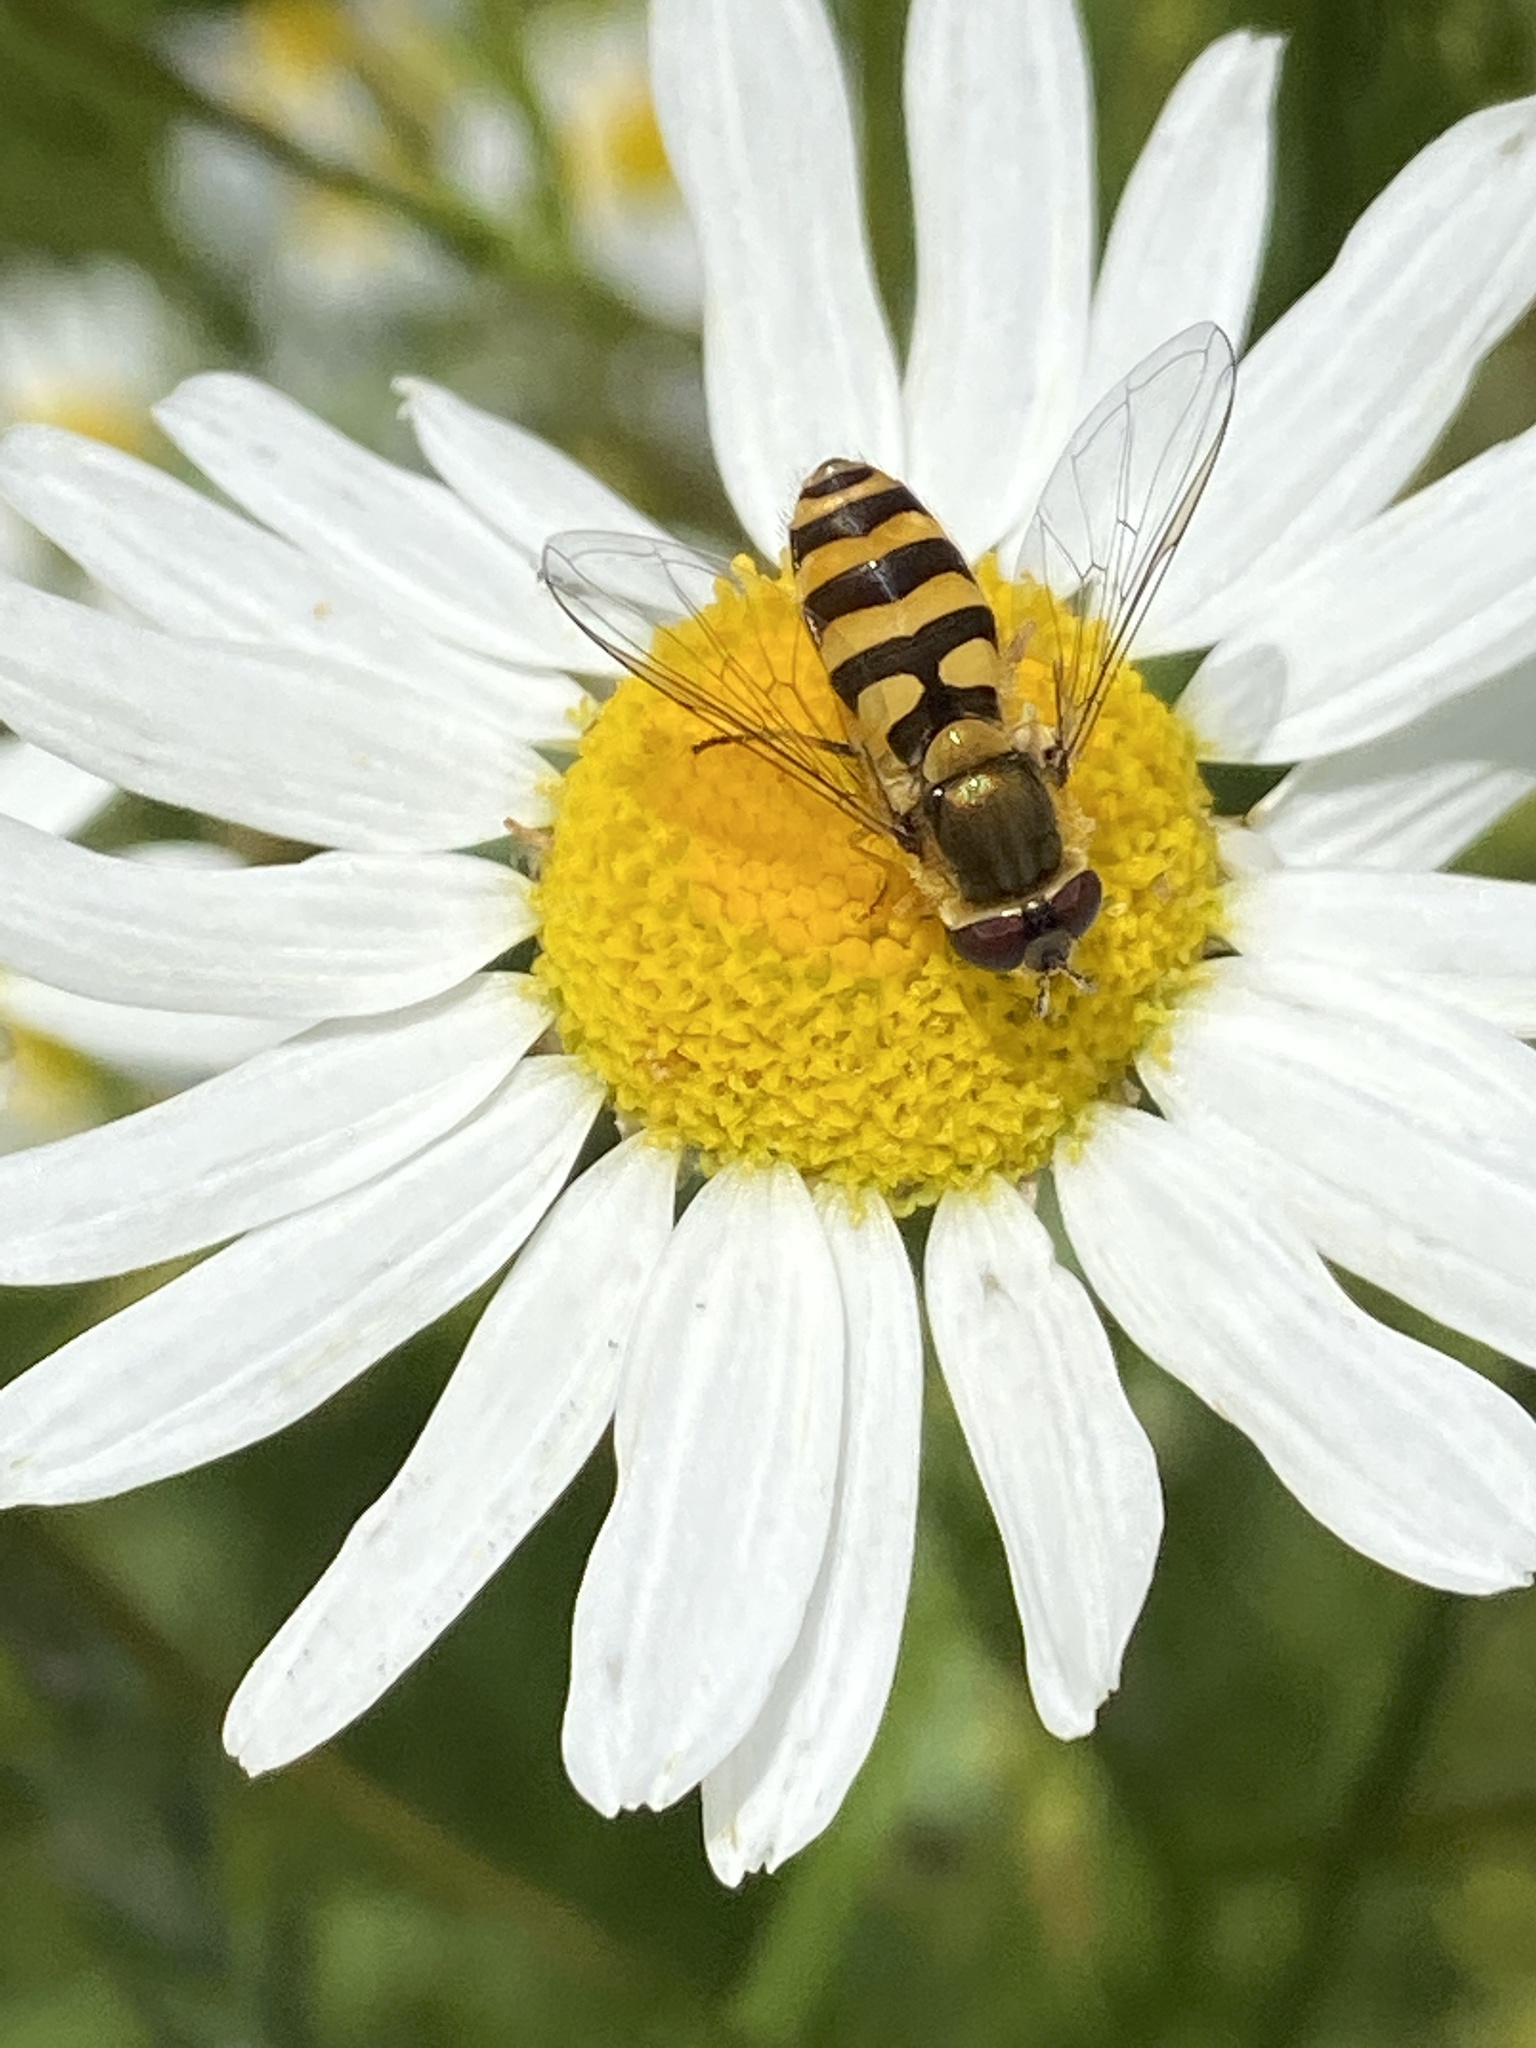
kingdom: Animalia
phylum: Arthropoda
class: Insecta
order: Diptera
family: Syrphidae
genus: Syrphus
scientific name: Syrphus
